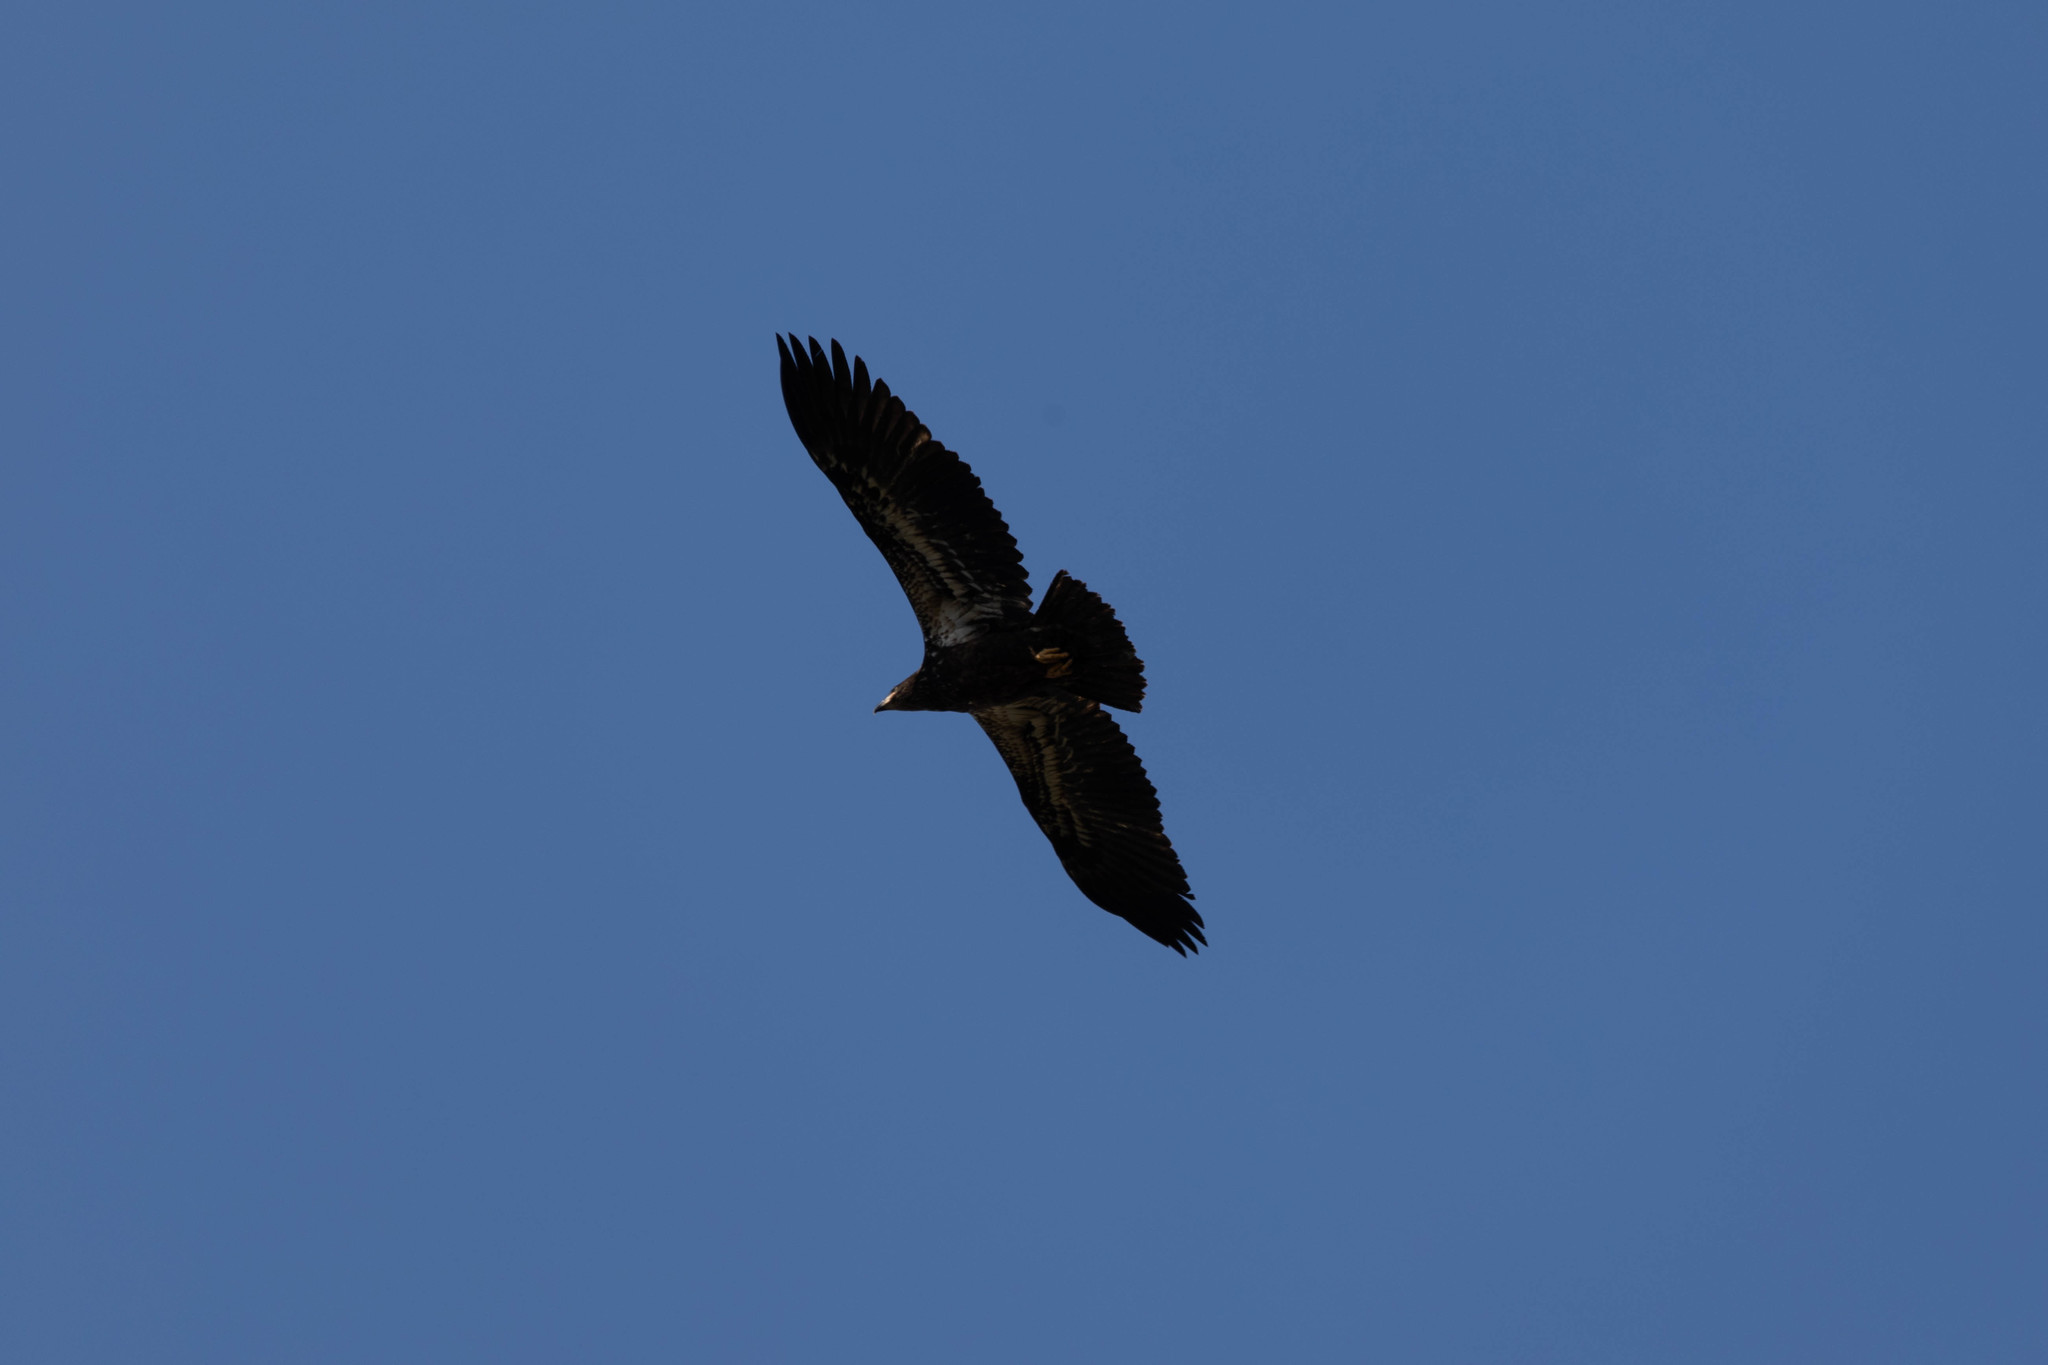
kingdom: Animalia
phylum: Chordata
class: Aves
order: Accipitriformes
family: Accipitridae
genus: Haliaeetus
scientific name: Haliaeetus leucocephalus
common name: Bald eagle
